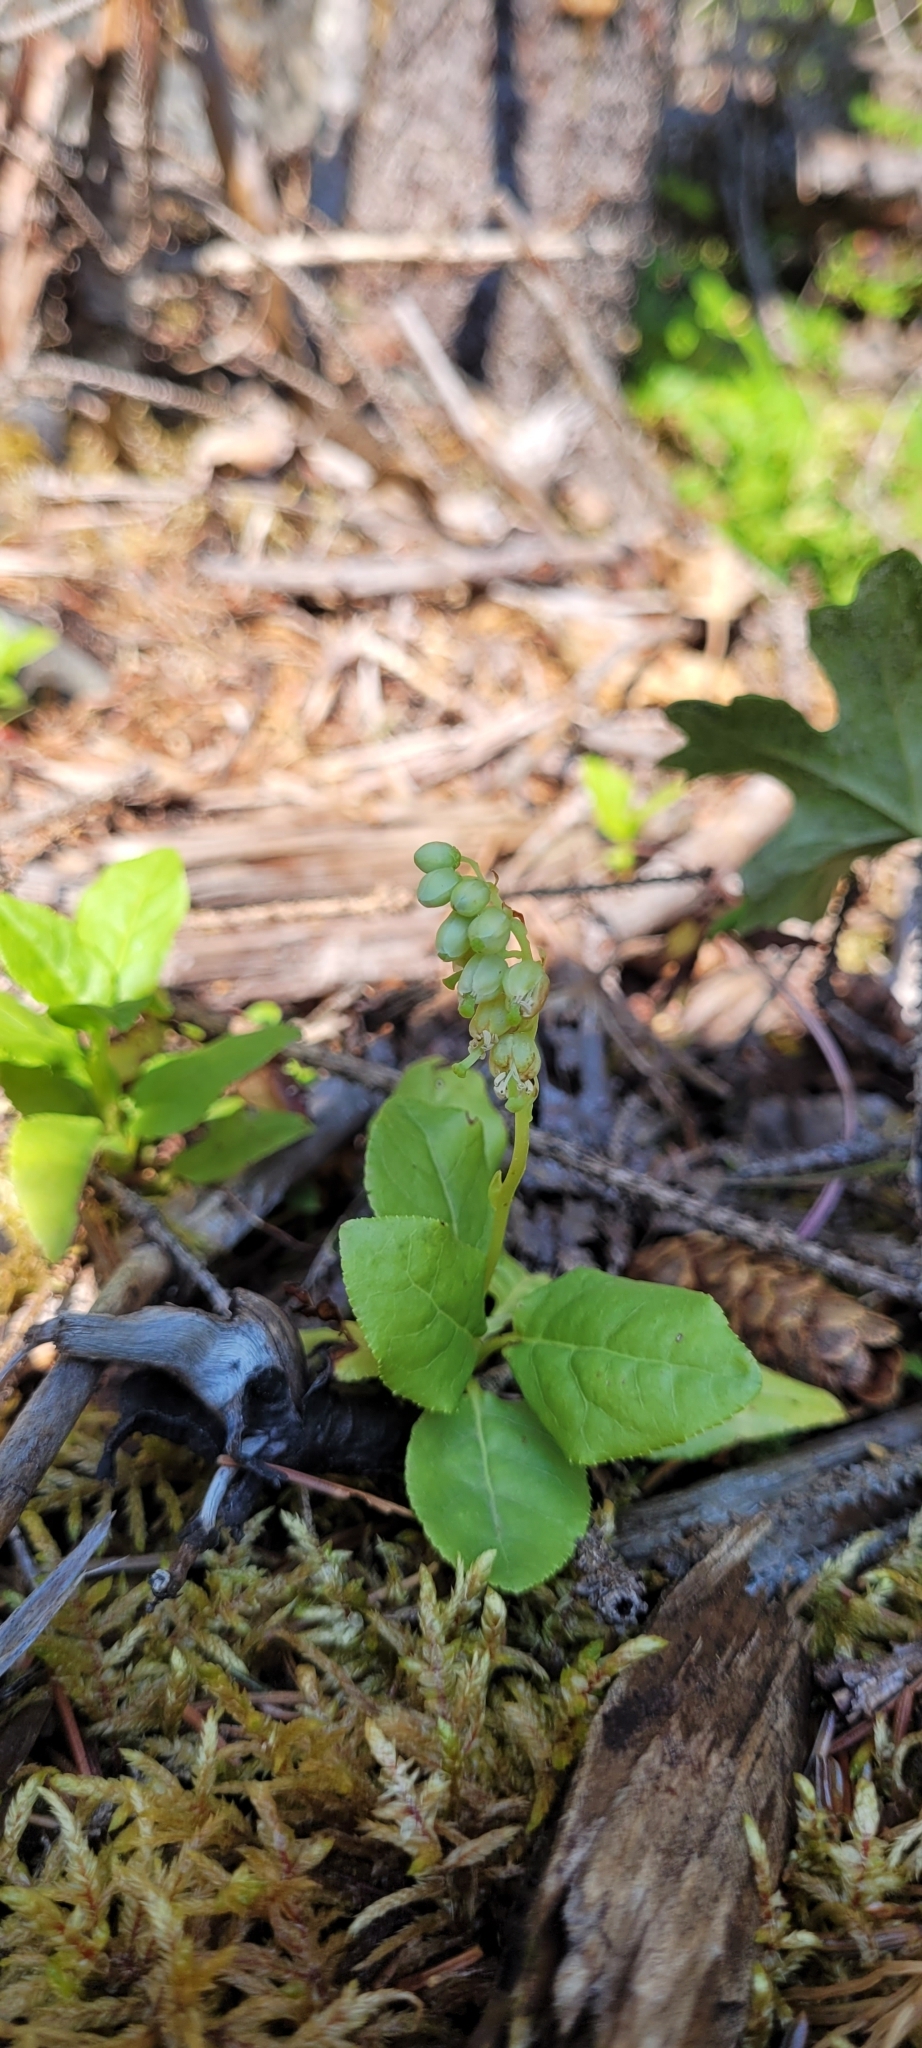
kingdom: Plantae
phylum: Tracheophyta
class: Magnoliopsida
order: Ericales
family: Ericaceae
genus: Orthilia
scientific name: Orthilia secunda
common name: One-sided orthilia
